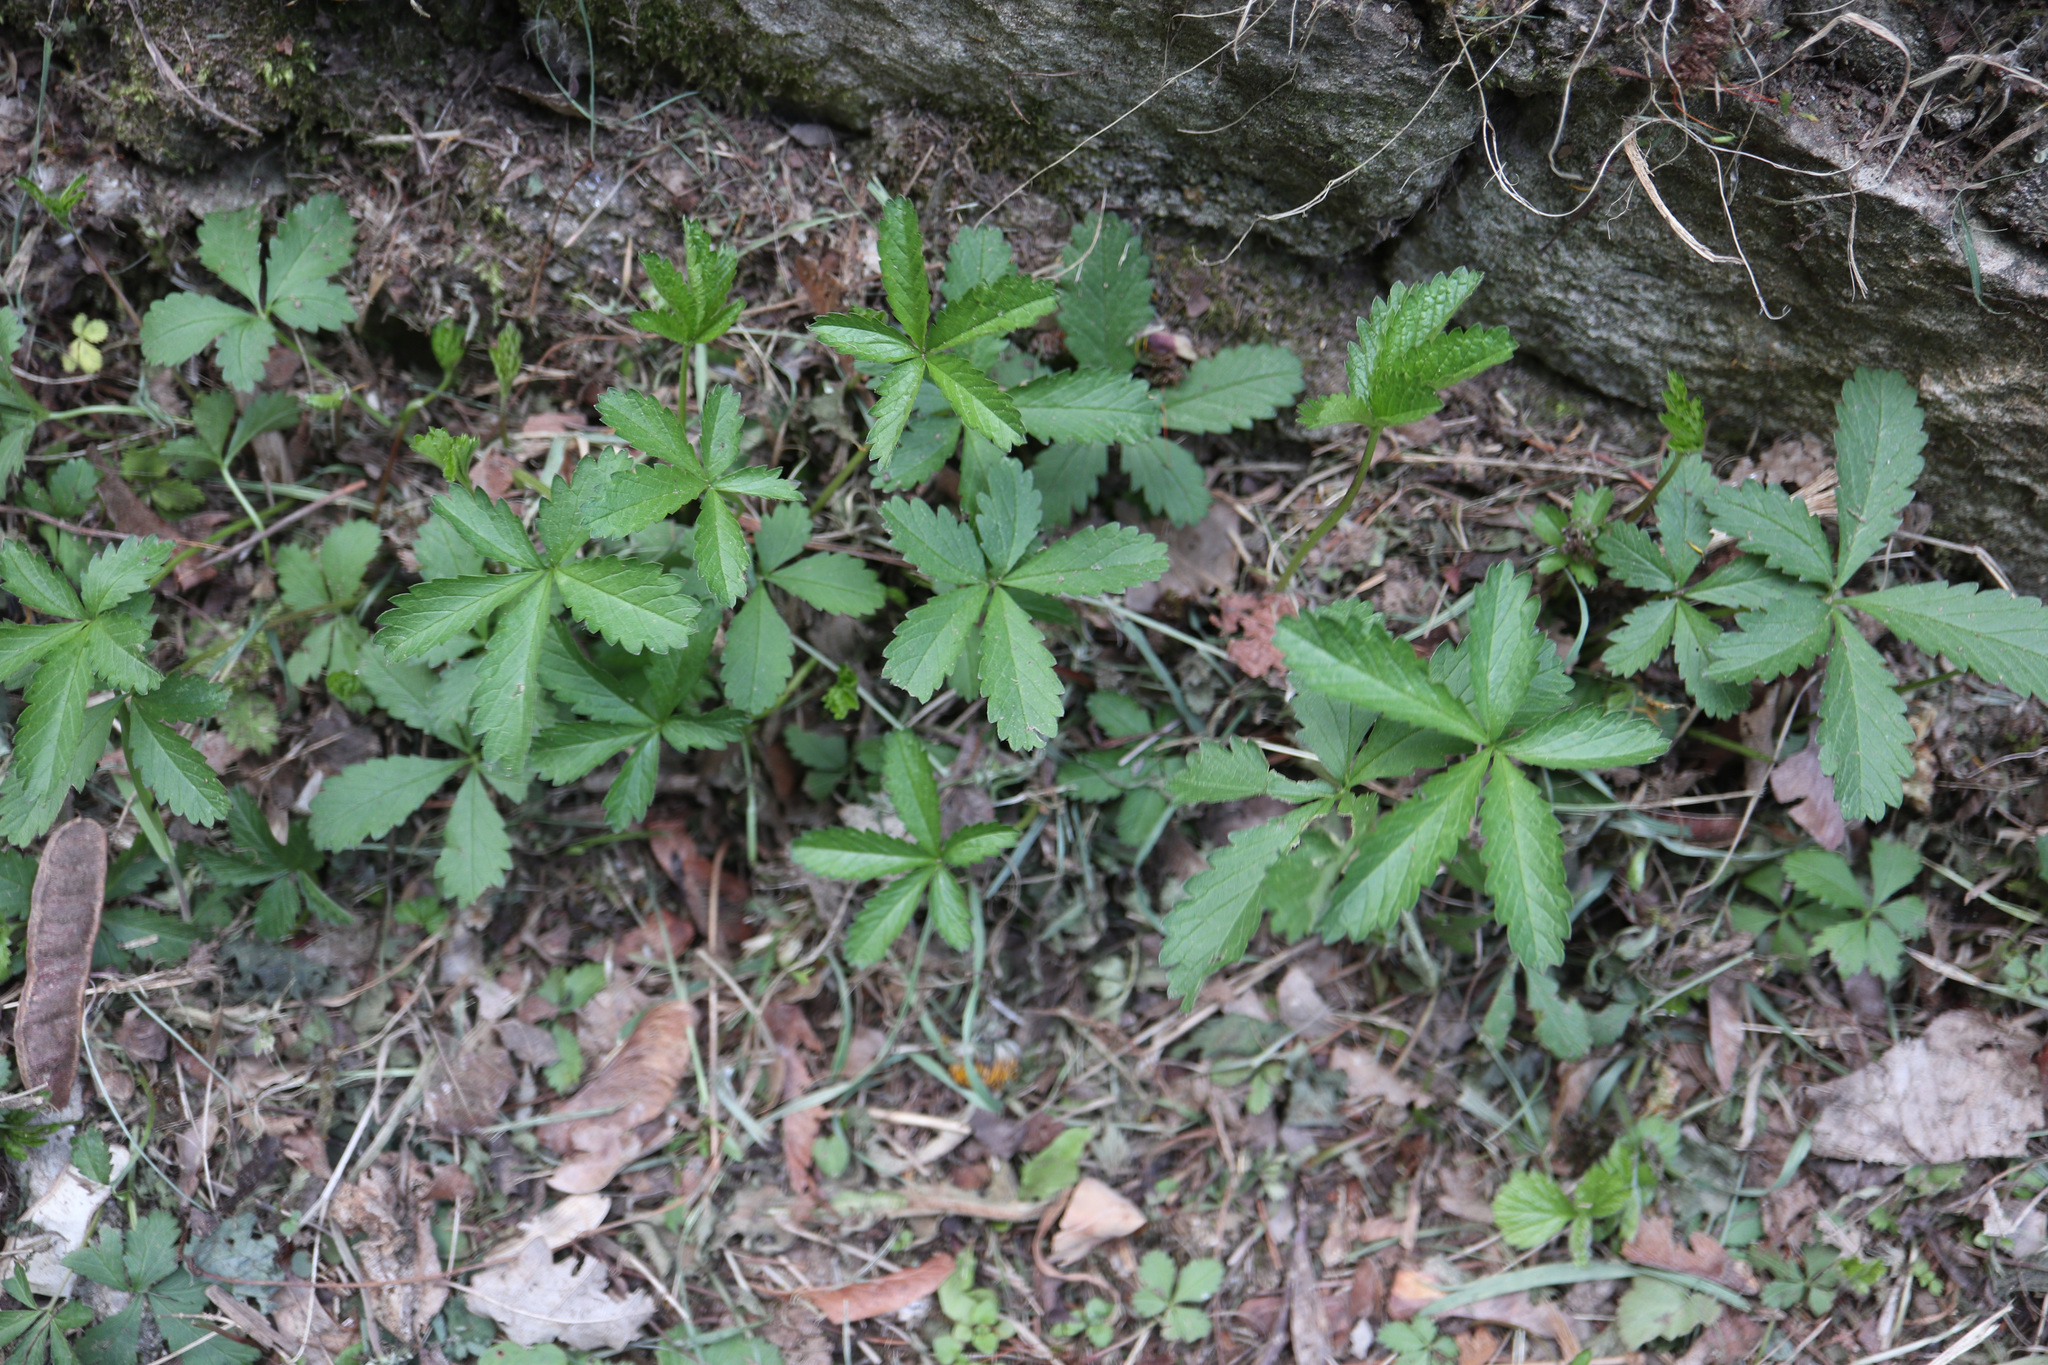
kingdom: Plantae
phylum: Tracheophyta
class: Magnoliopsida
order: Rosales
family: Rosaceae
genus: Potentilla
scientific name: Potentilla reptans
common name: Creeping cinquefoil
